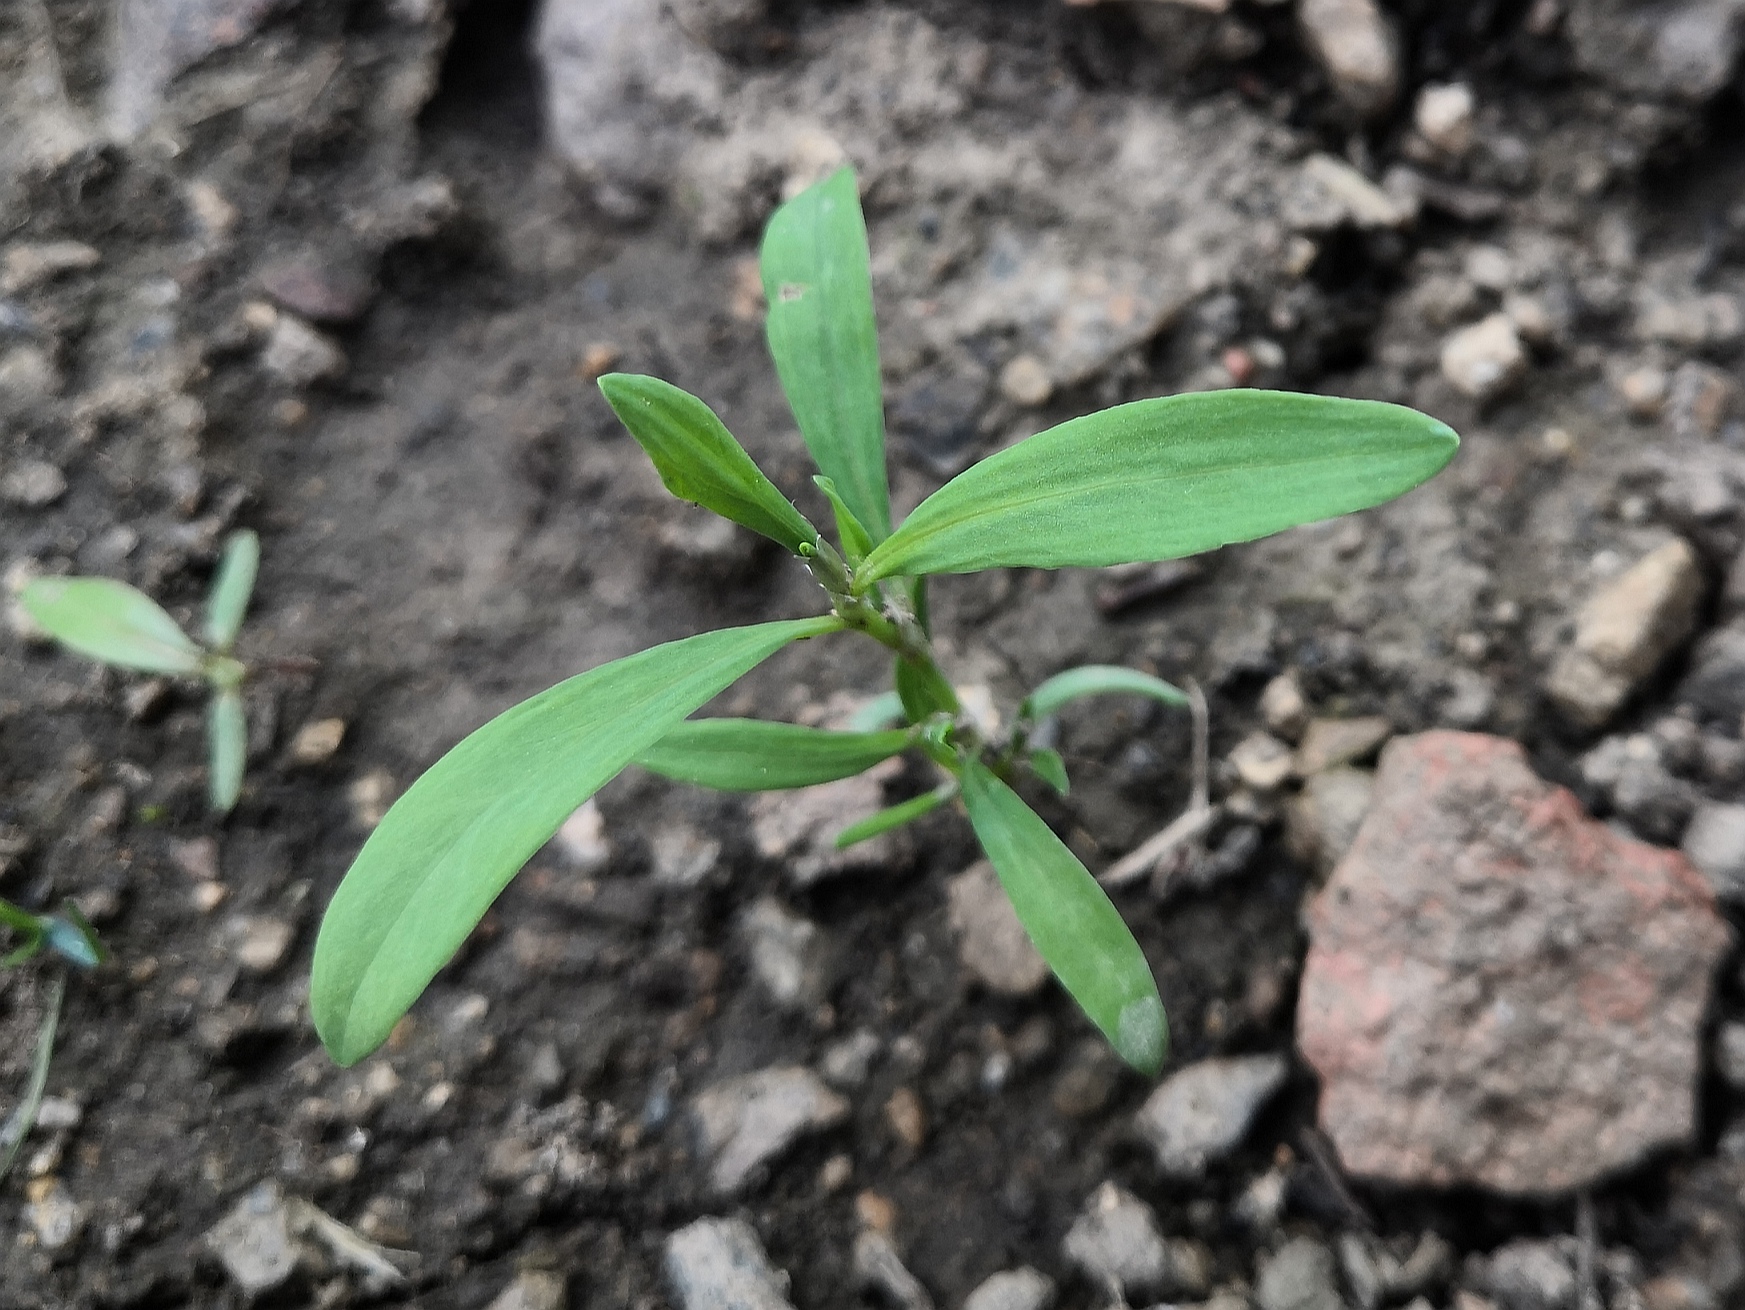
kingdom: Plantae
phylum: Tracheophyta
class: Magnoliopsida
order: Caryophyllales
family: Polygonaceae
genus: Polygonum
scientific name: Polygonum aviculare
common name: Prostrate knotweed
